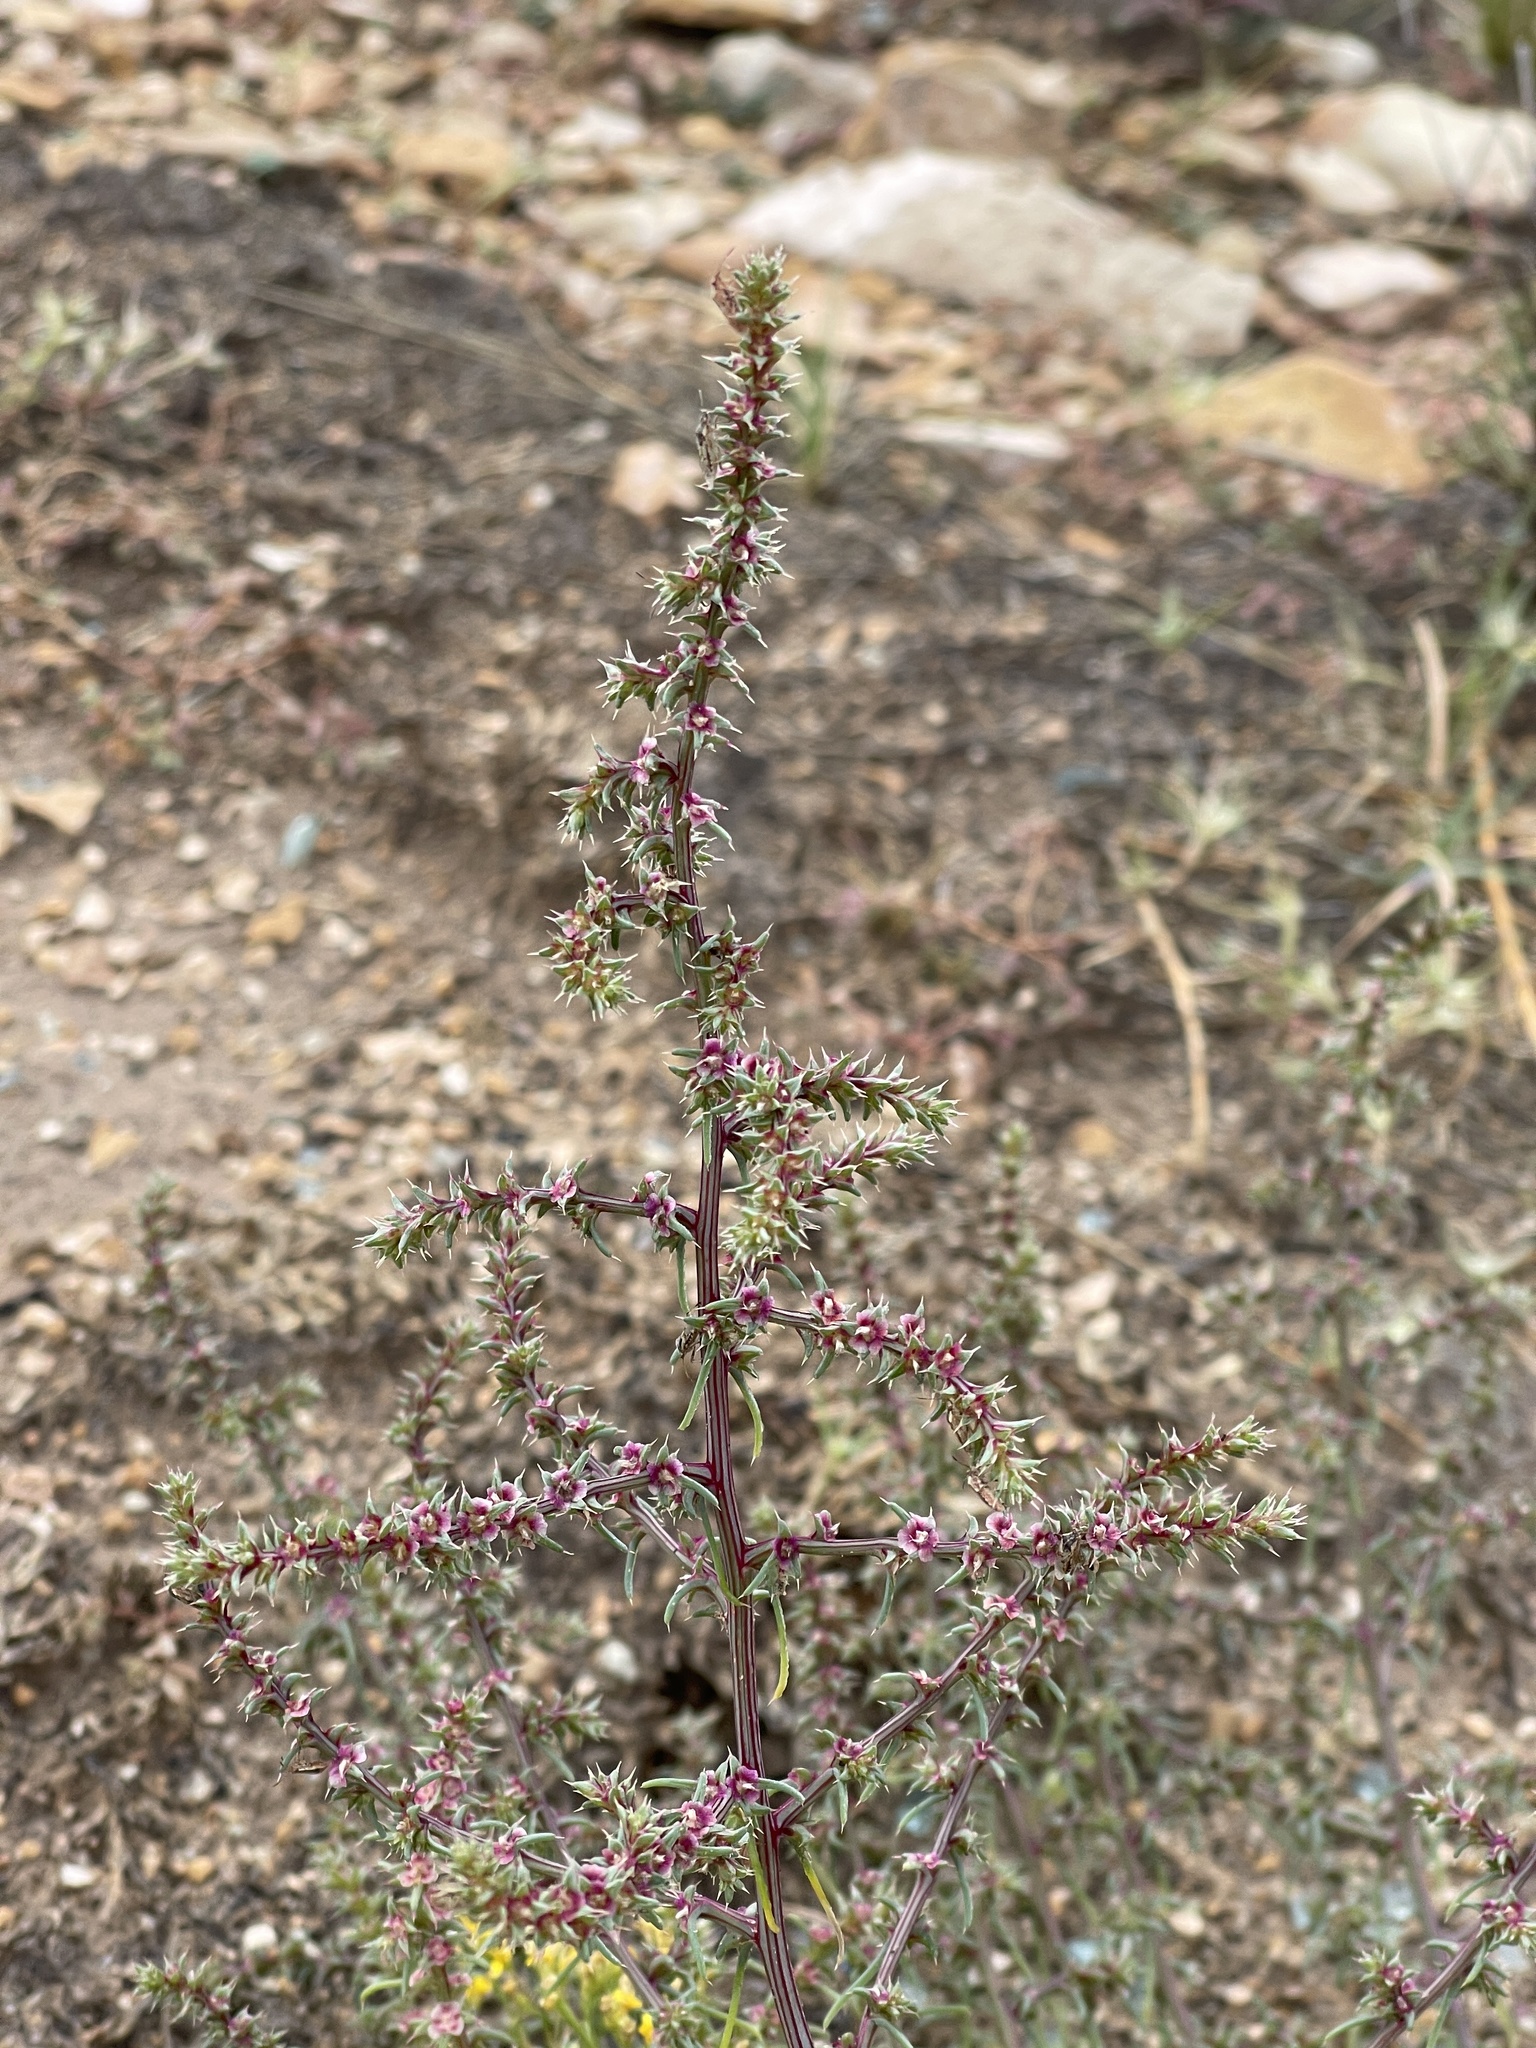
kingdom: Plantae
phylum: Tracheophyta
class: Magnoliopsida
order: Caryophyllales
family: Amaranthaceae
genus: Salsola
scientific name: Salsola tragus
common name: Prickly russian thistle
